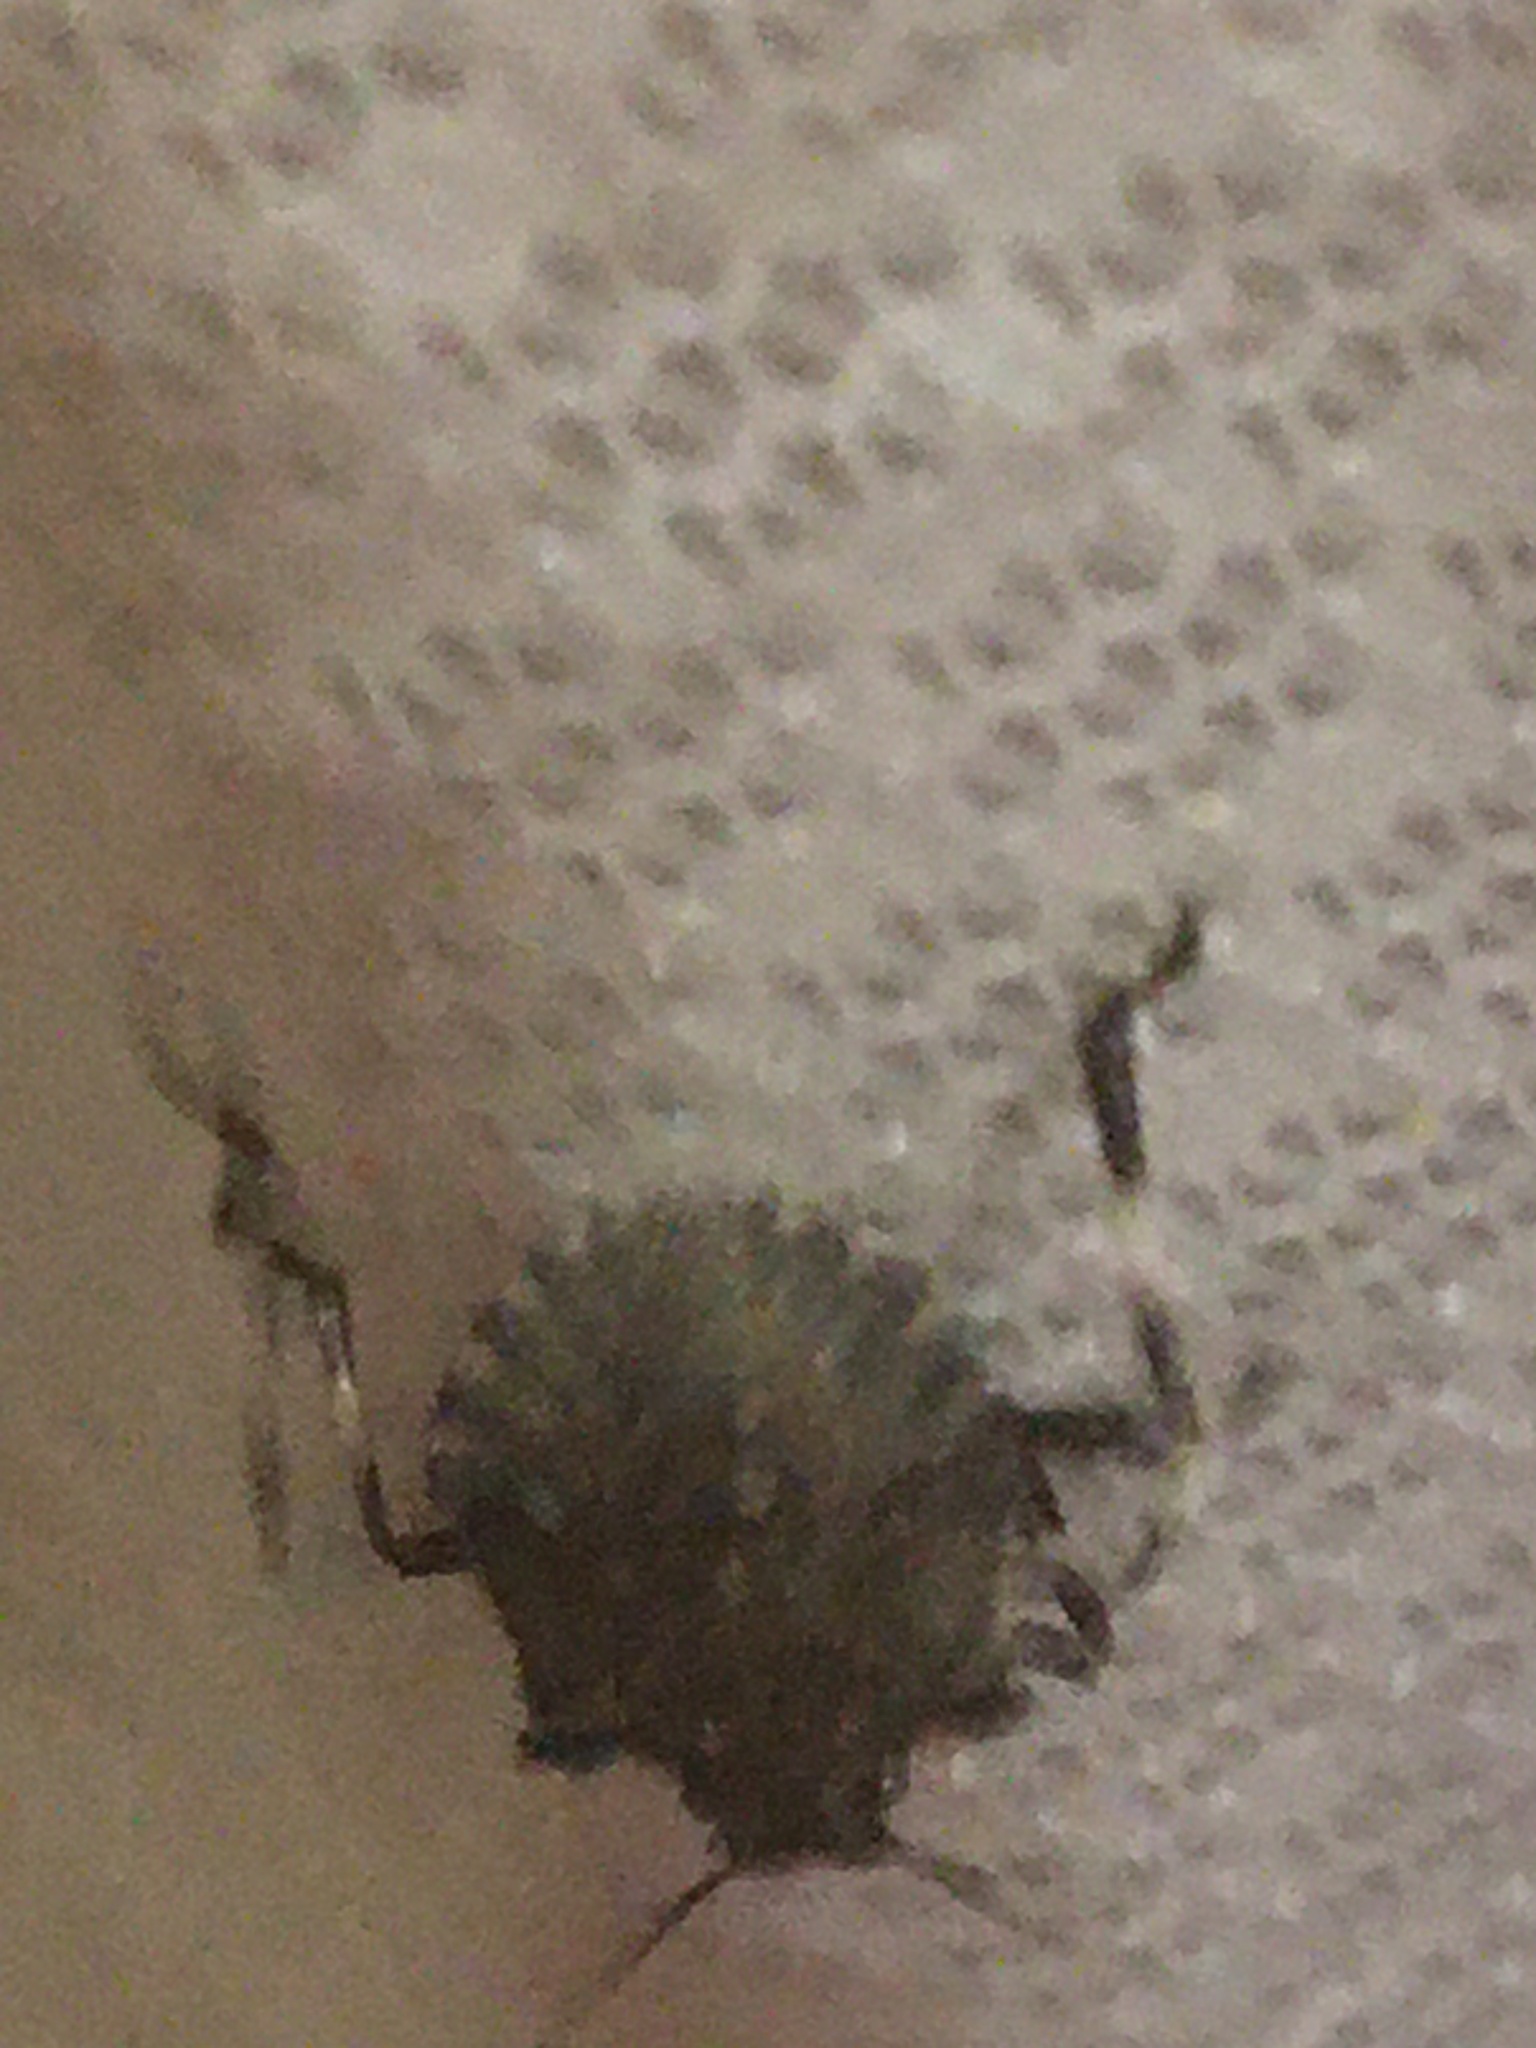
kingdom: Animalia
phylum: Arthropoda
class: Insecta
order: Hemiptera
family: Pentatomidae
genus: Halyomorpha
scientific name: Halyomorpha halys
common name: Brown marmorated stink bug
